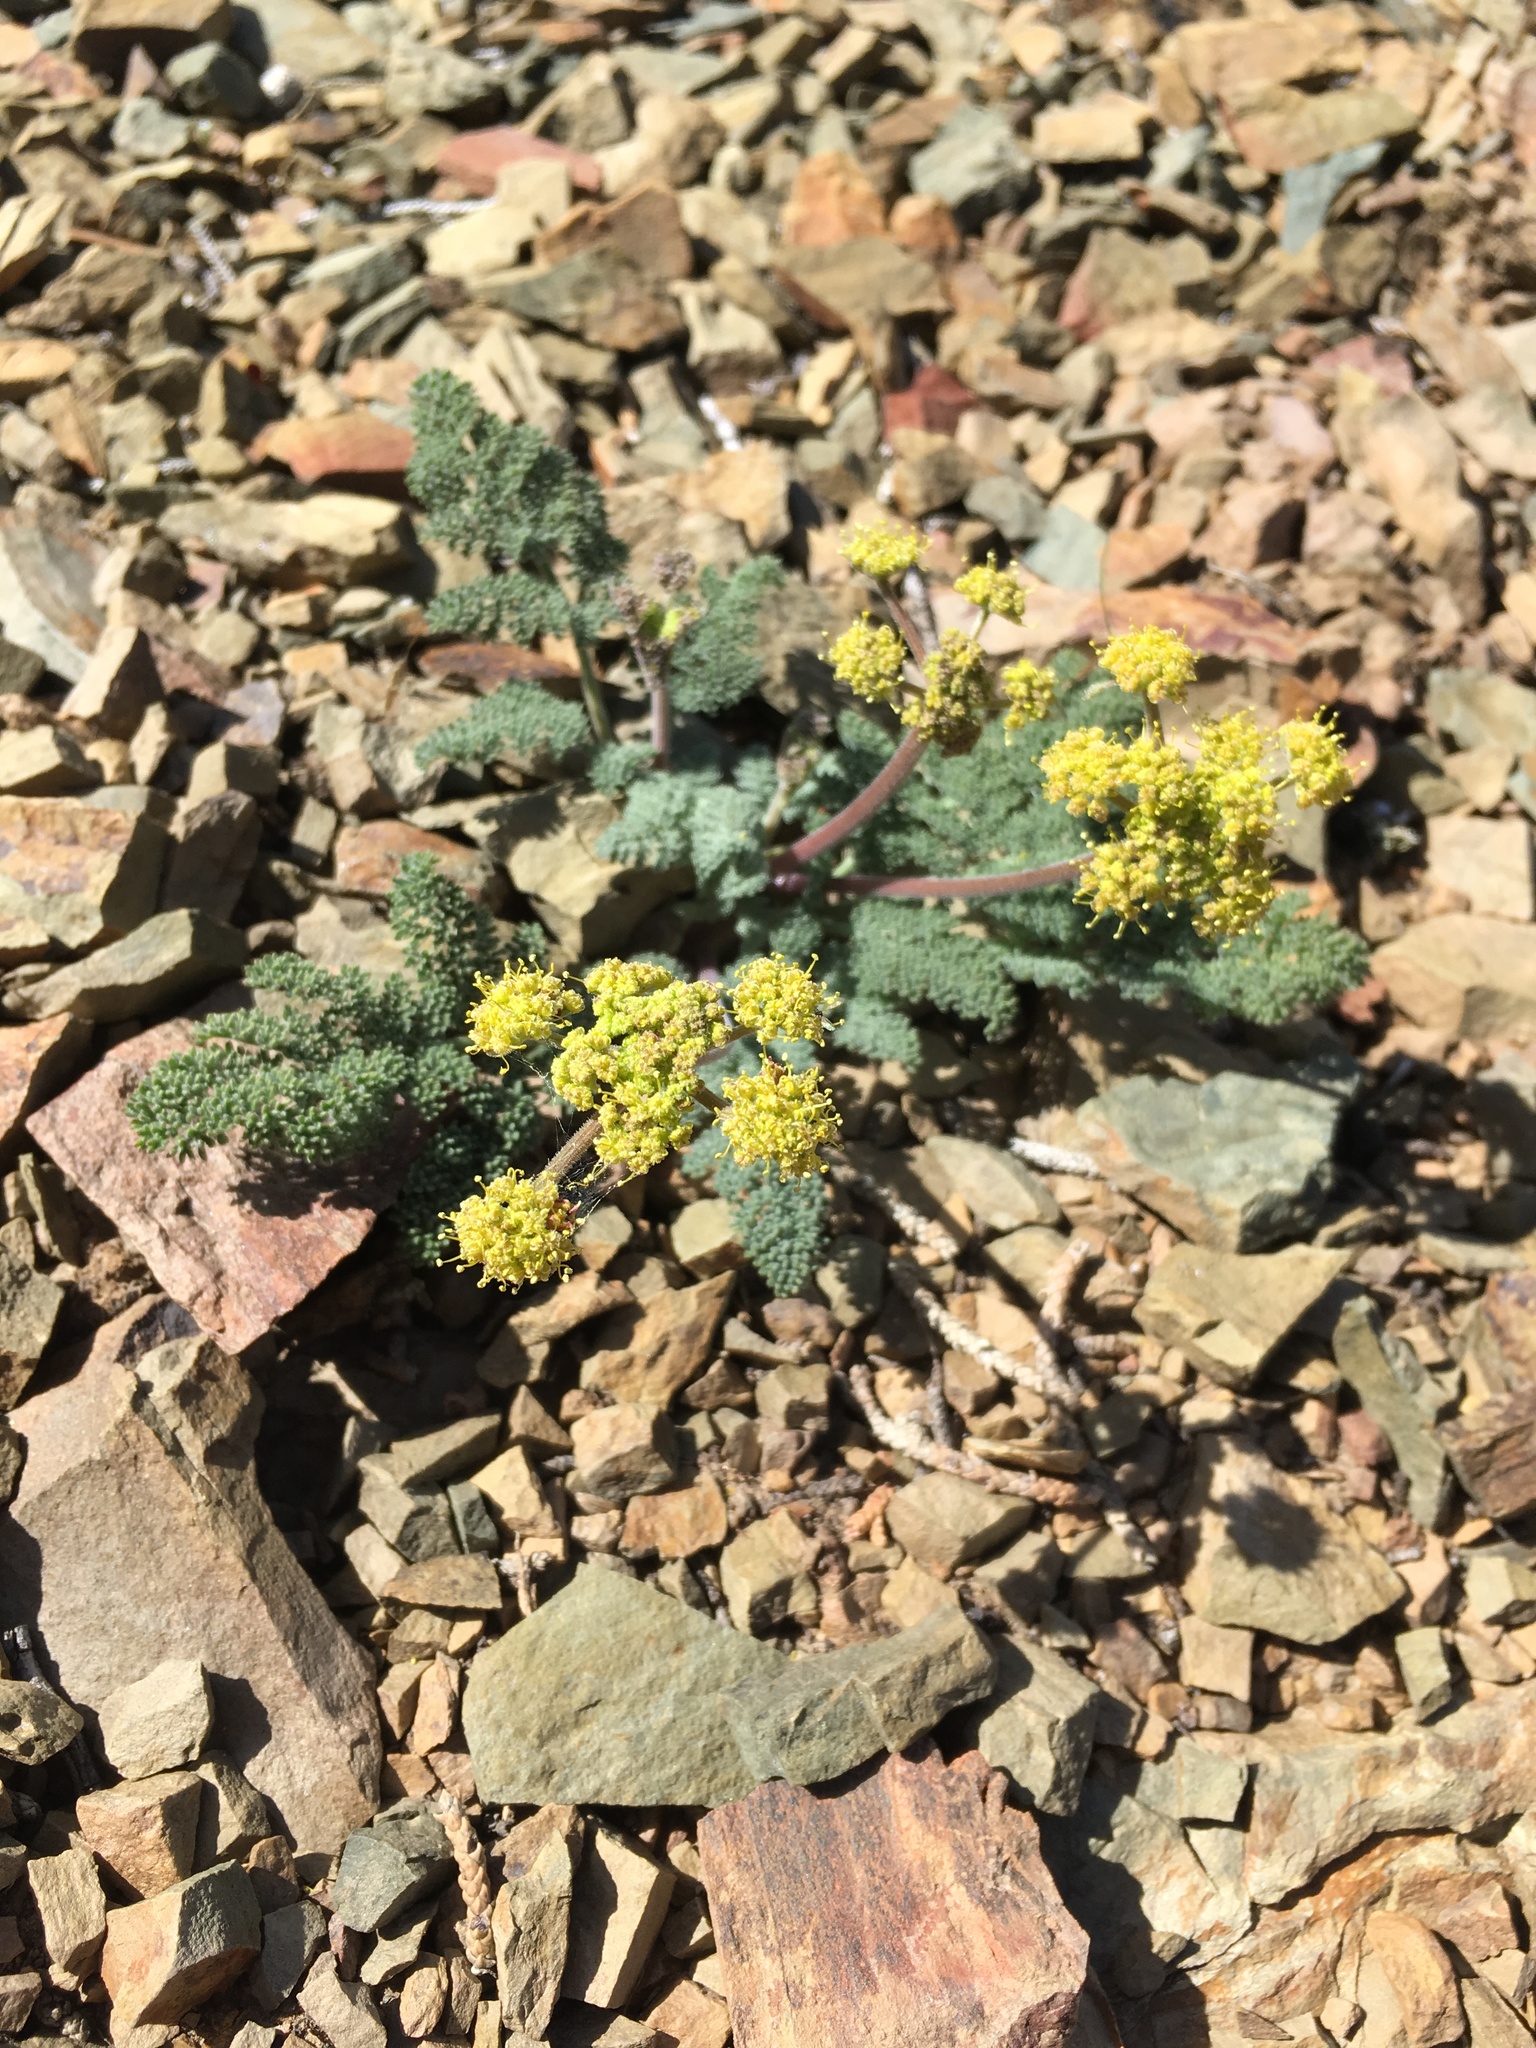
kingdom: Plantae
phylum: Tracheophyta
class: Magnoliopsida
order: Apiales
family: Apiaceae
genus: Lomatium
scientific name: Lomatium foeniculaceum
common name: Desert-parsley
